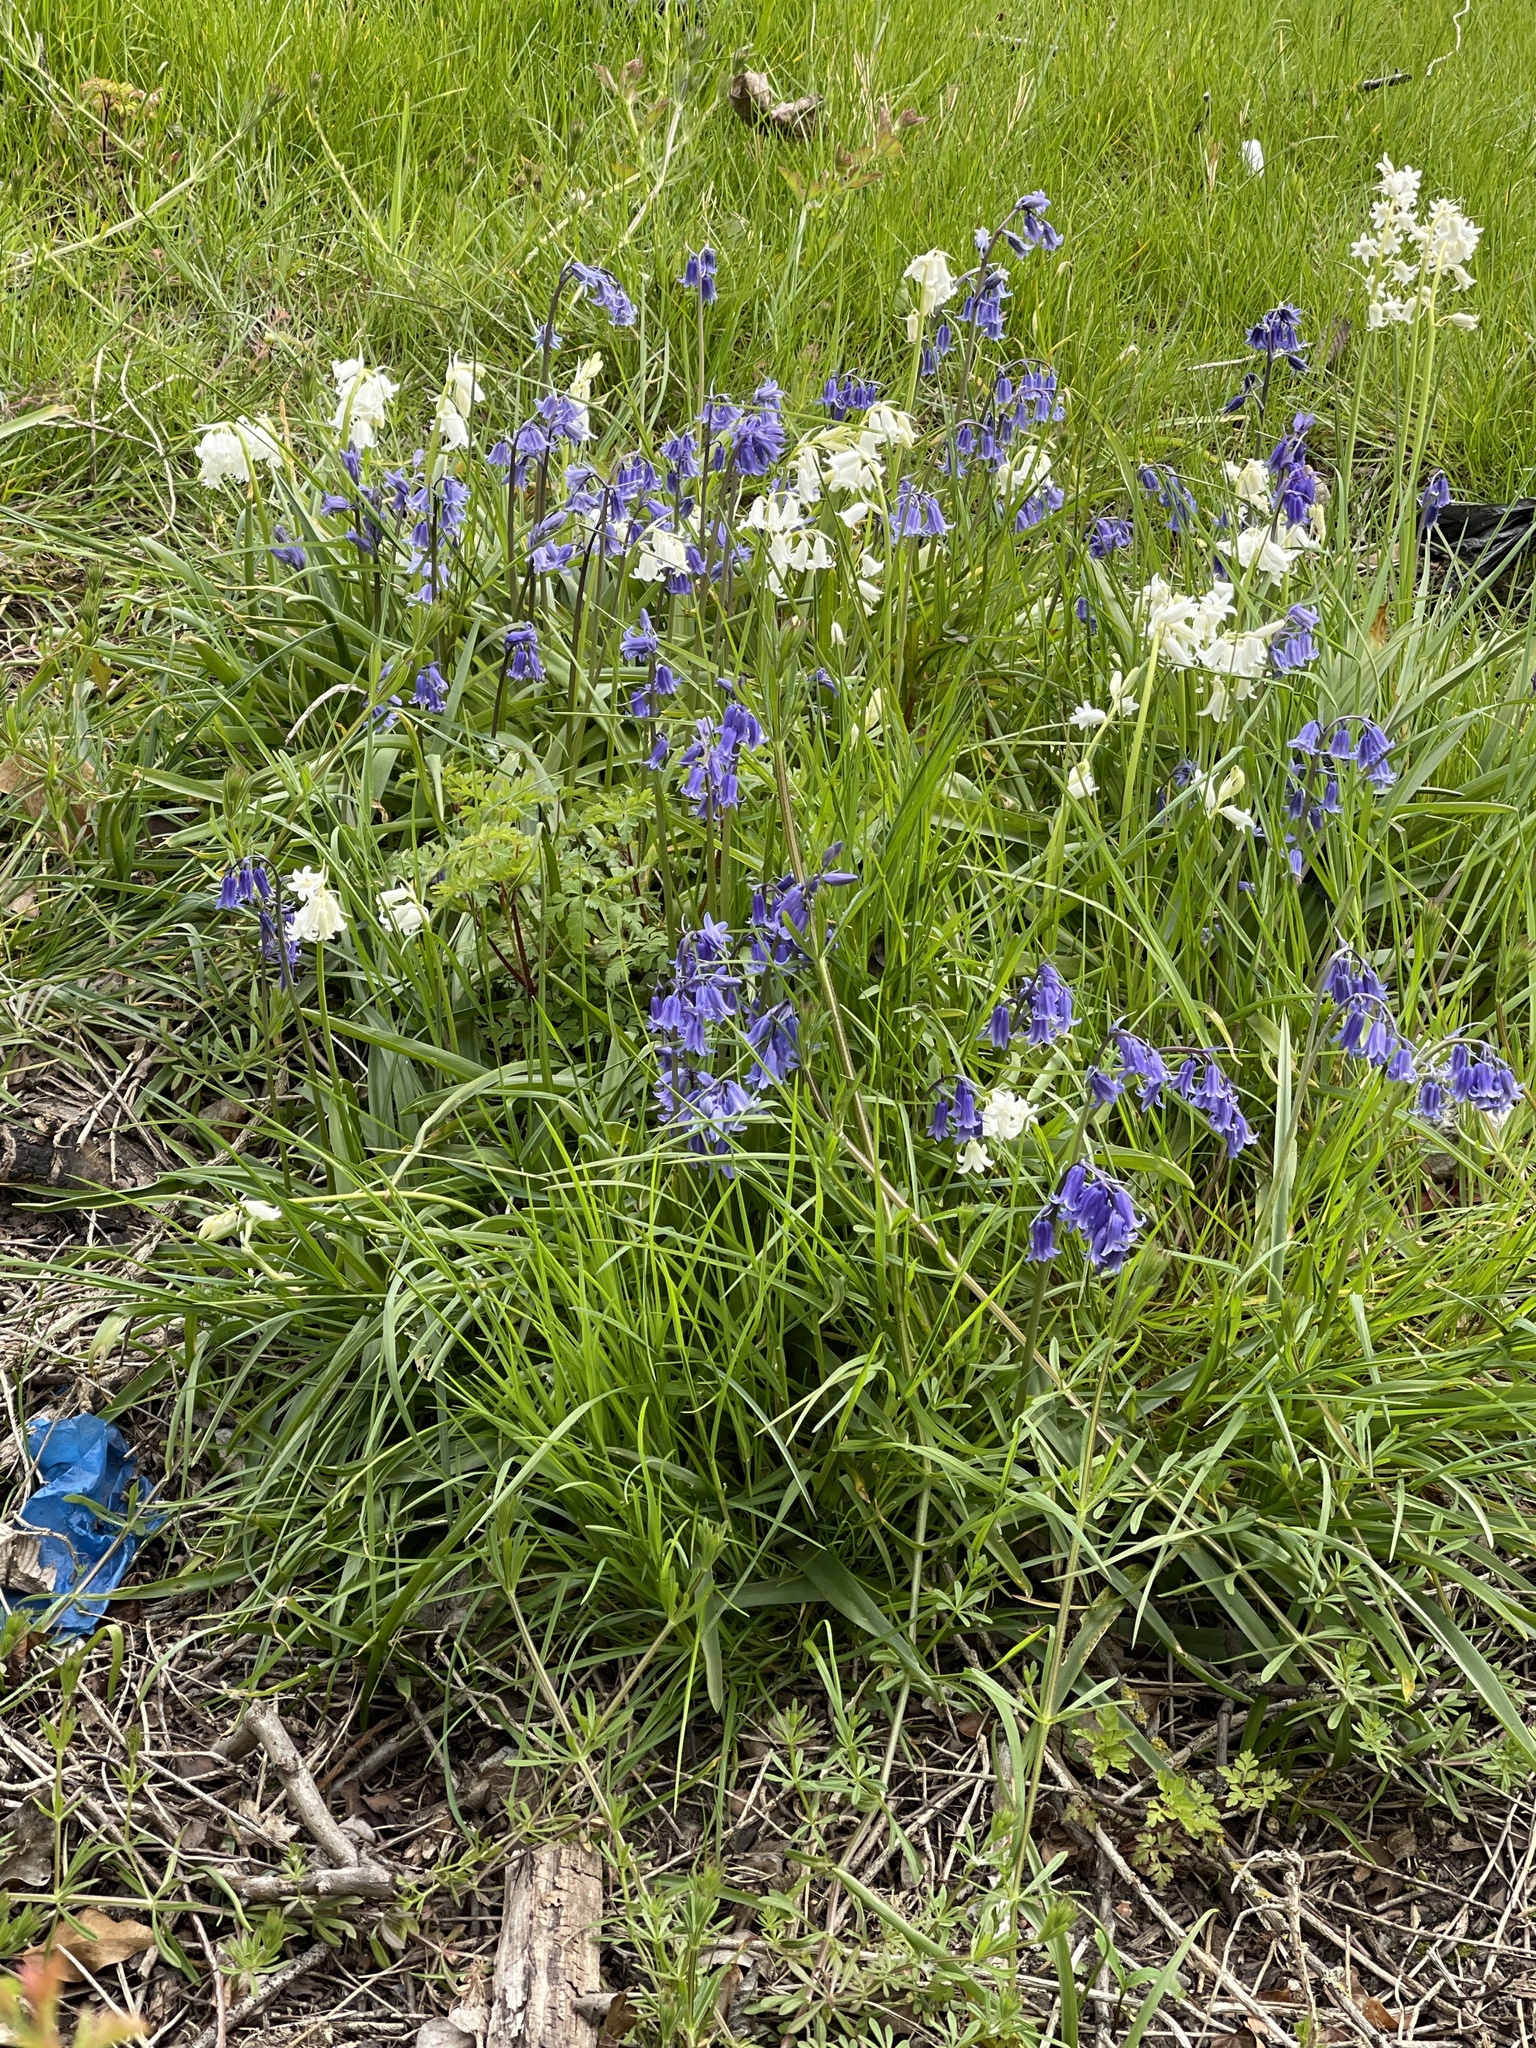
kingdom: Plantae
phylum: Tracheophyta
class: Liliopsida
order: Asparagales
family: Asparagaceae
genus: Hyacinthoides
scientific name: Hyacinthoides massartiana
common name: Hyacinthoides
